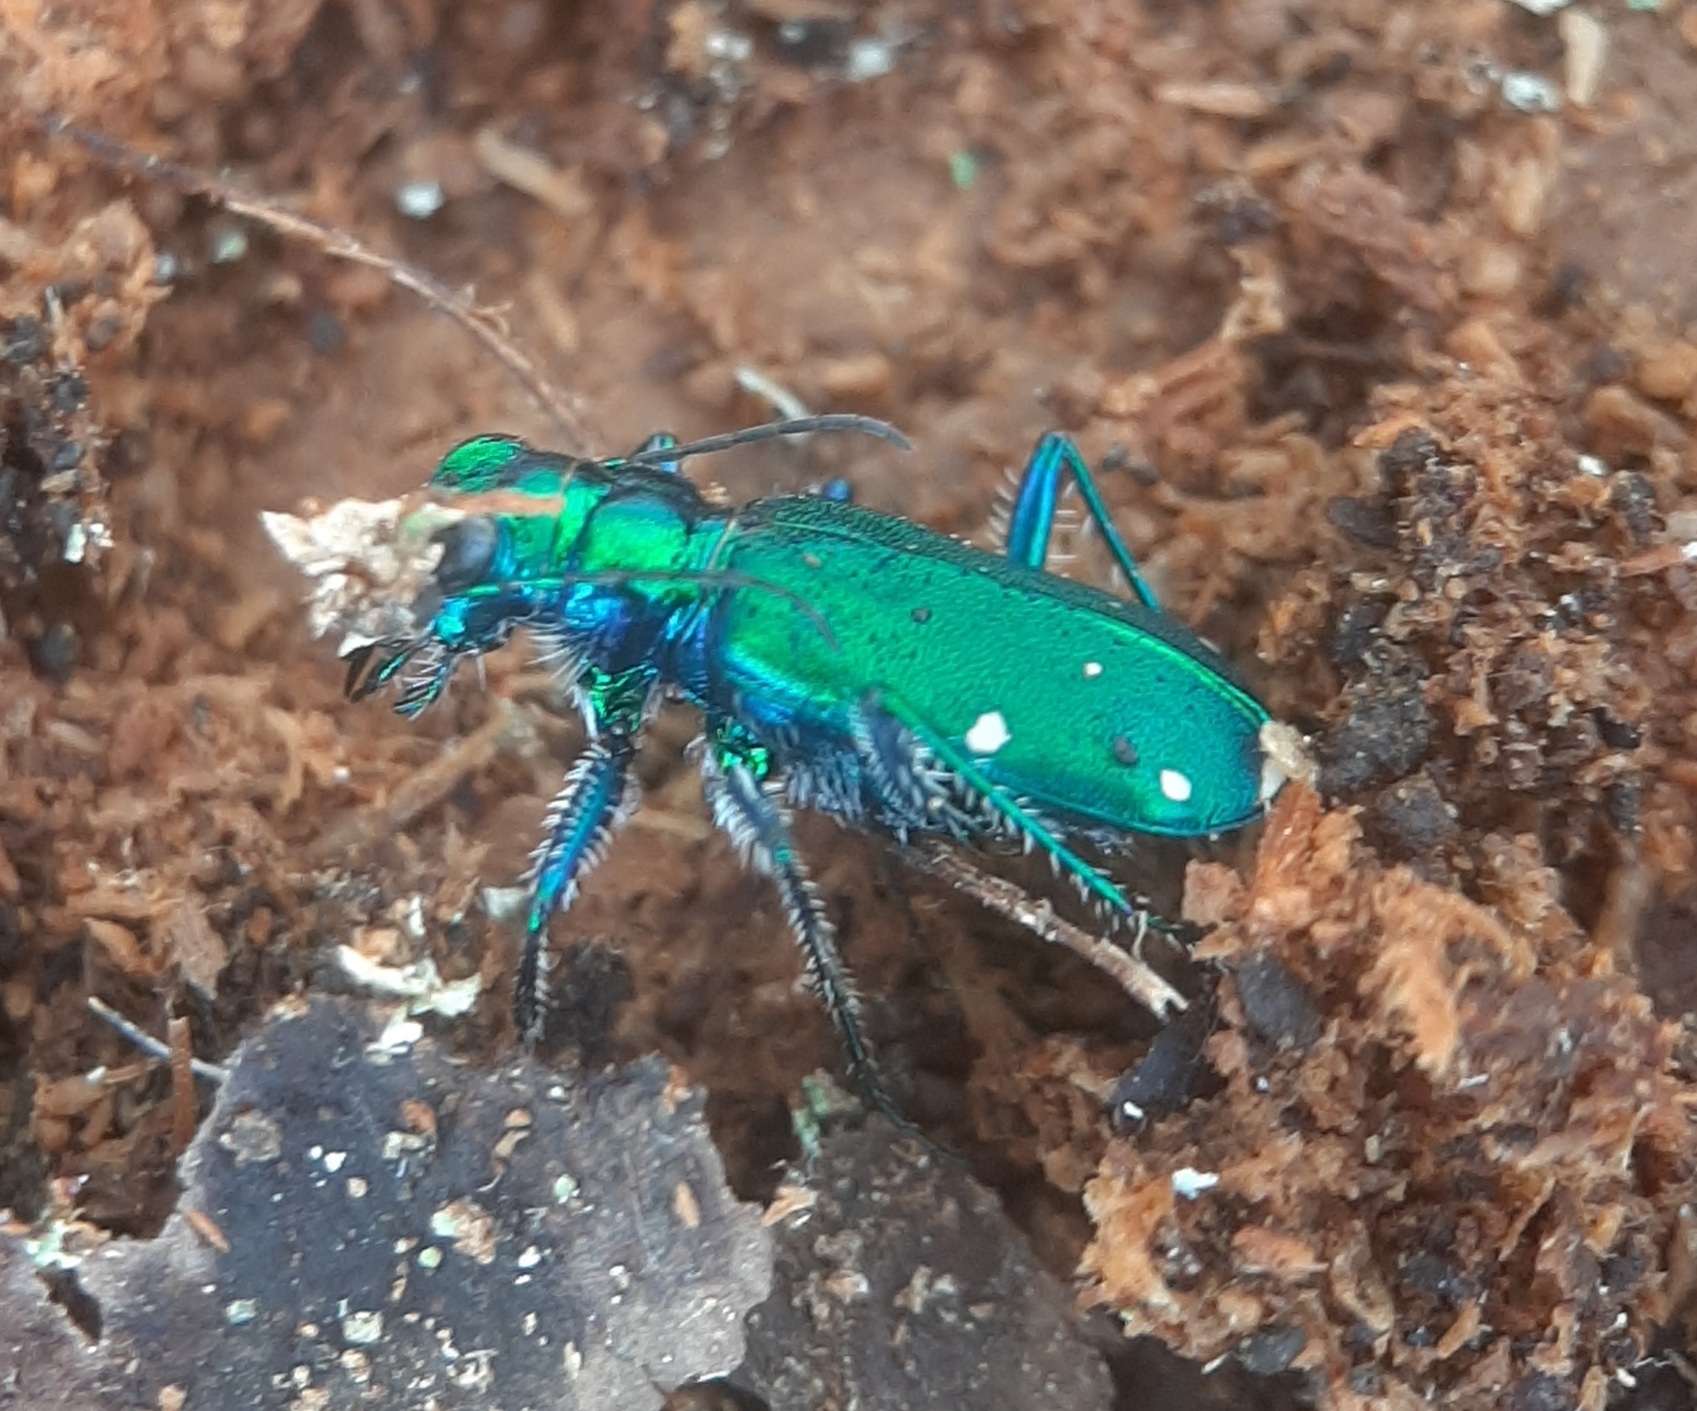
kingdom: Animalia
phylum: Arthropoda
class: Insecta
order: Coleoptera
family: Carabidae
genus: Cicindela
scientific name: Cicindela sexguttata
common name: Six-spotted tiger beetle
